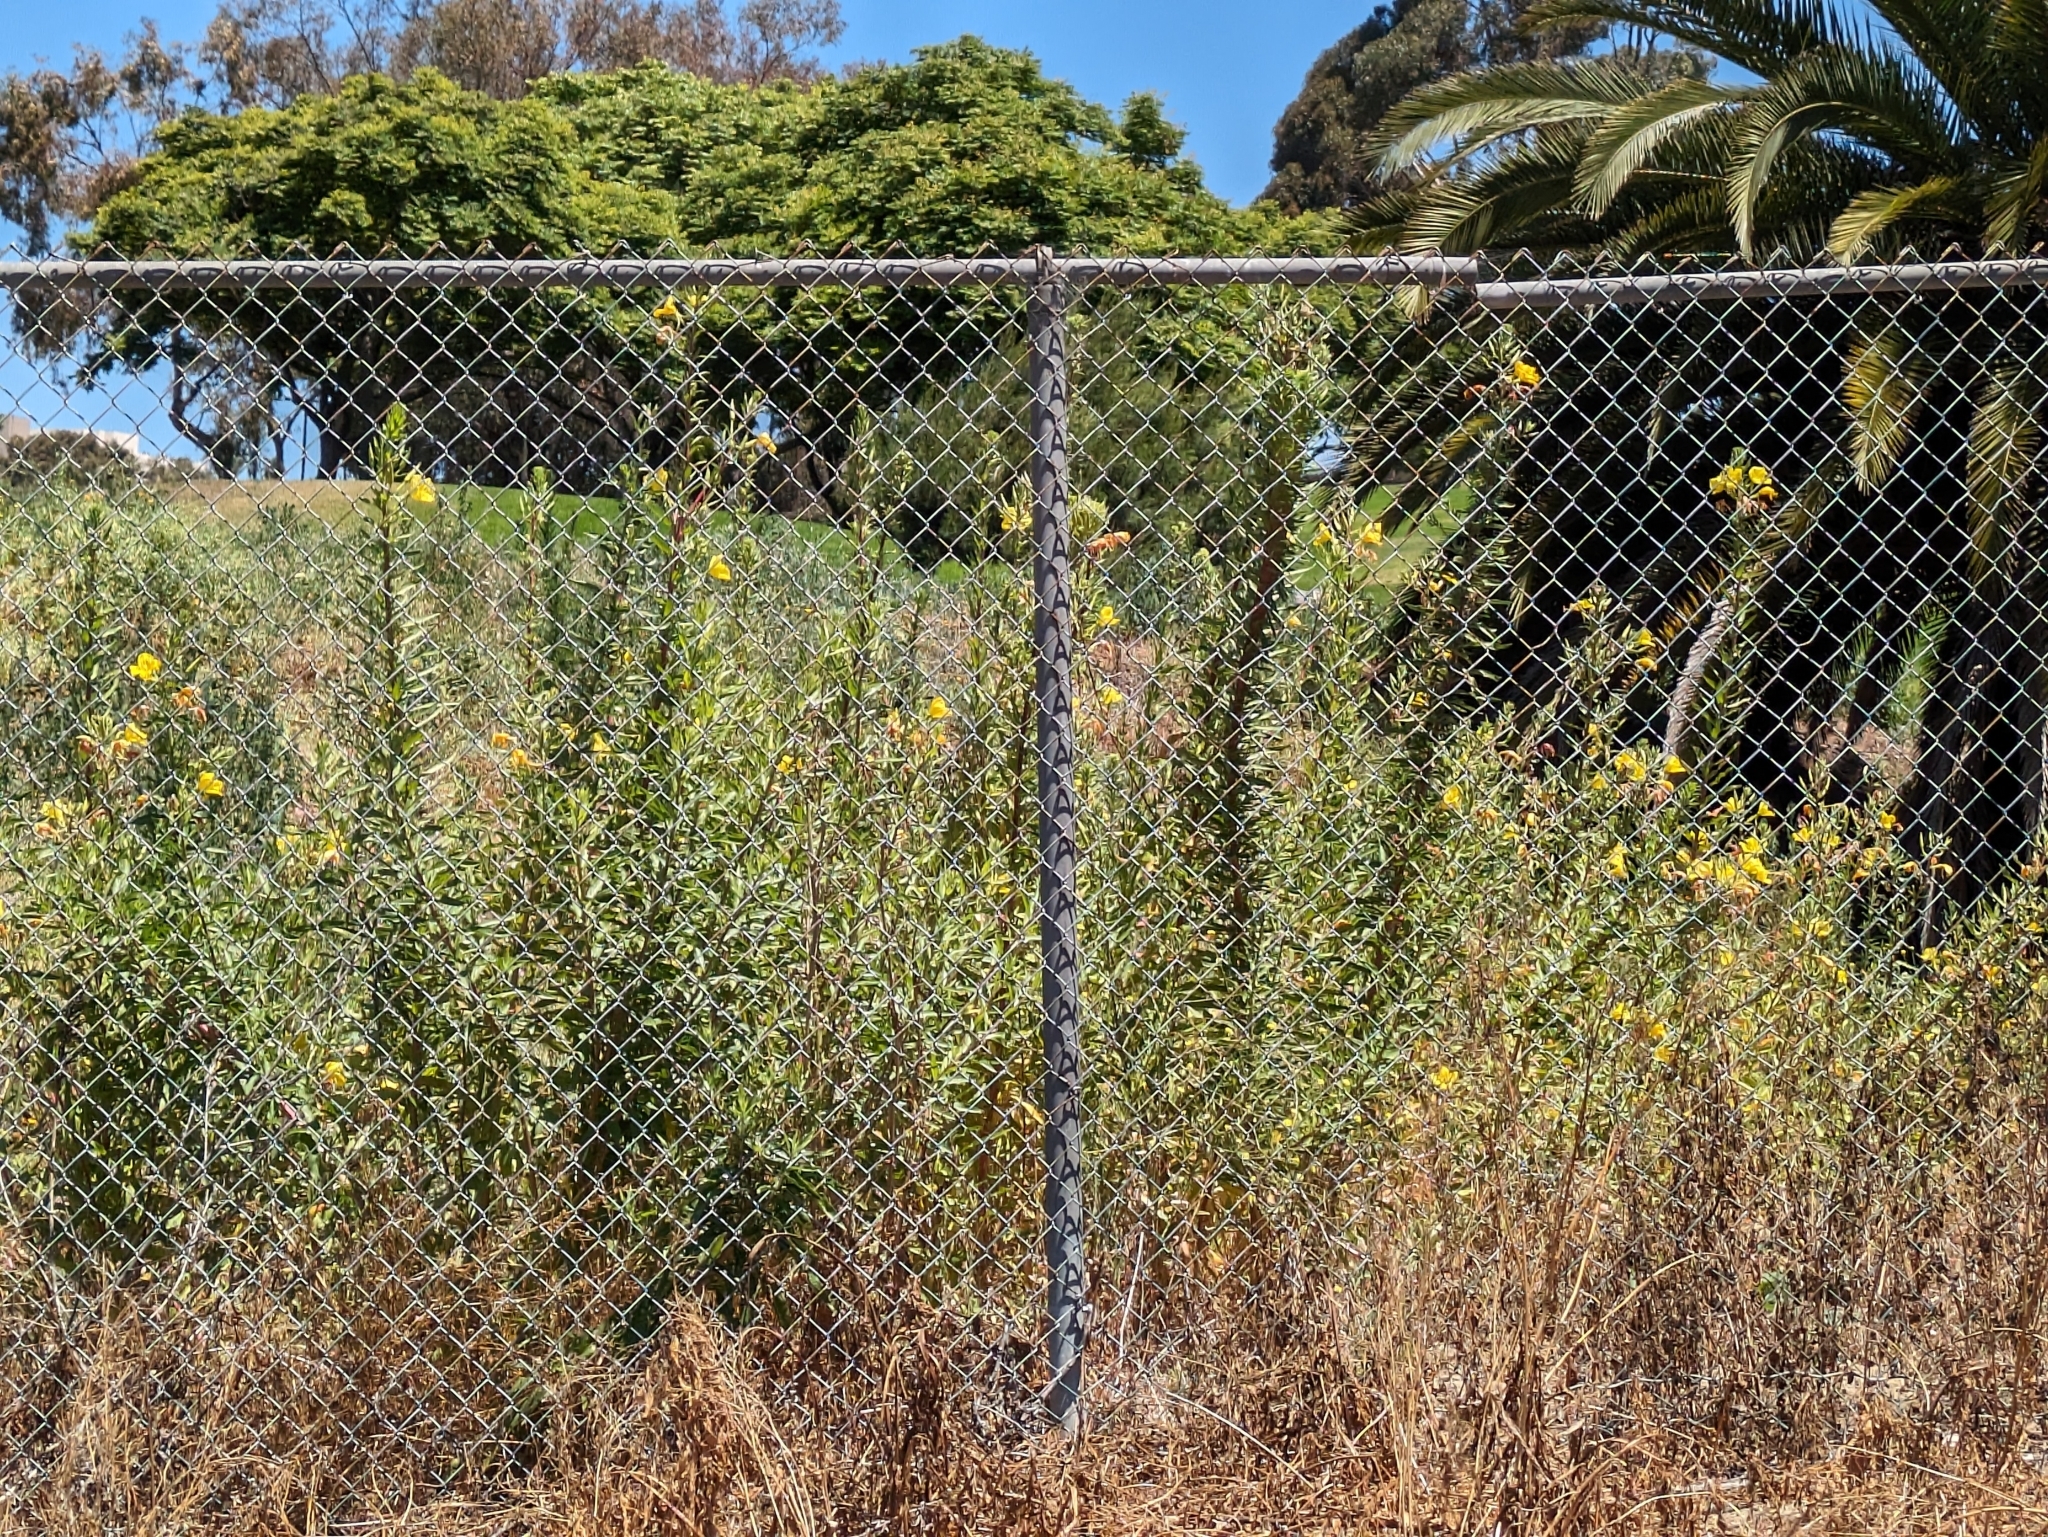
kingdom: Plantae
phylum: Tracheophyta
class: Magnoliopsida
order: Myrtales
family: Onagraceae
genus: Oenothera
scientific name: Oenothera elata
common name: Hooker's evening-primrose
